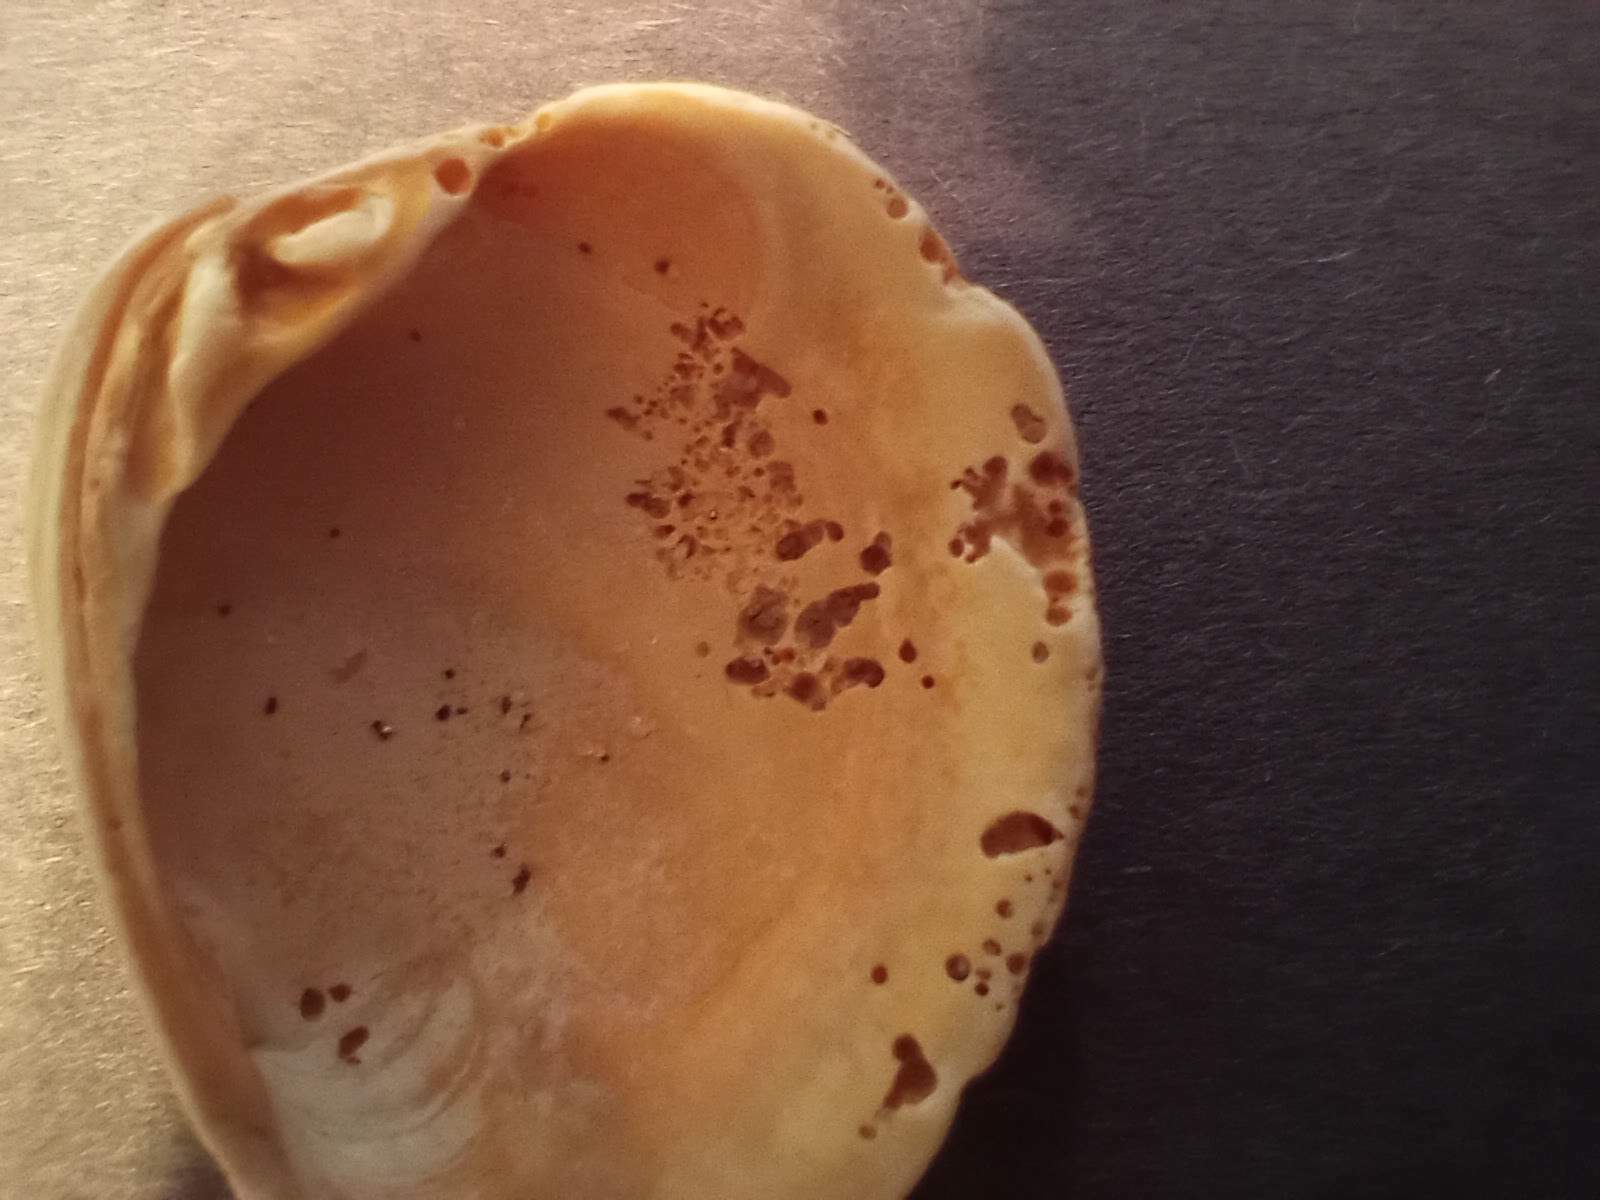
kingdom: Animalia
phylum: Mollusca
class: Bivalvia
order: Venerida
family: Veneridae
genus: Chione
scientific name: Chione elevata
